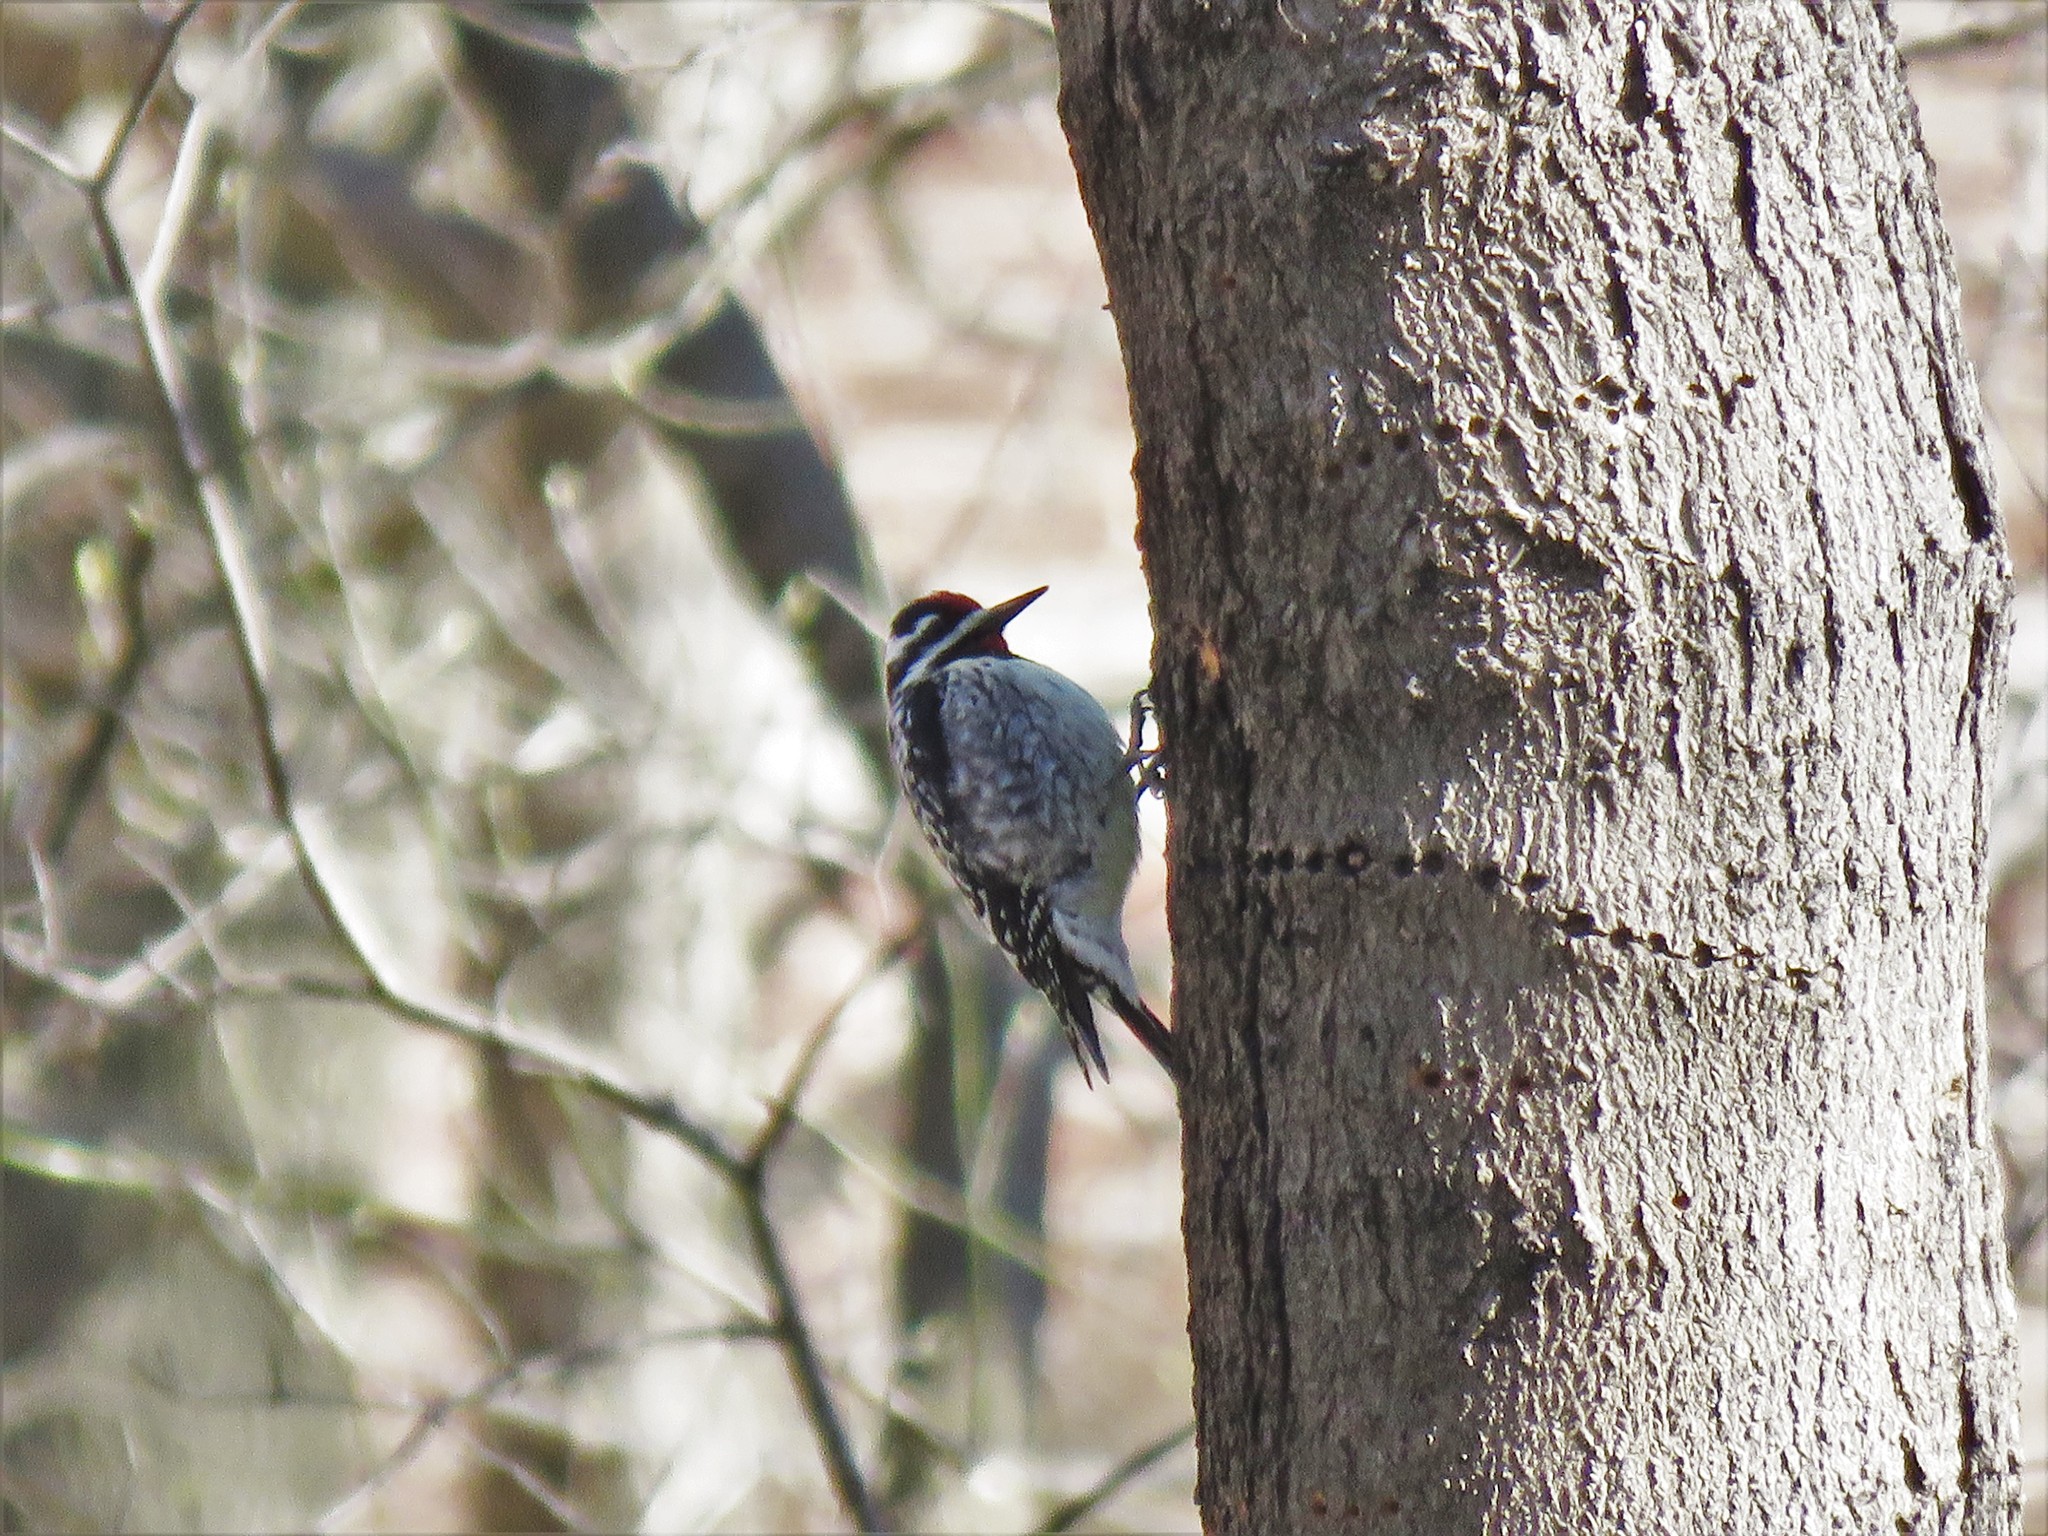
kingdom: Animalia
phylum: Chordata
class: Aves
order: Piciformes
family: Picidae
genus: Sphyrapicus
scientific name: Sphyrapicus varius
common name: Yellow-bellied sapsucker
